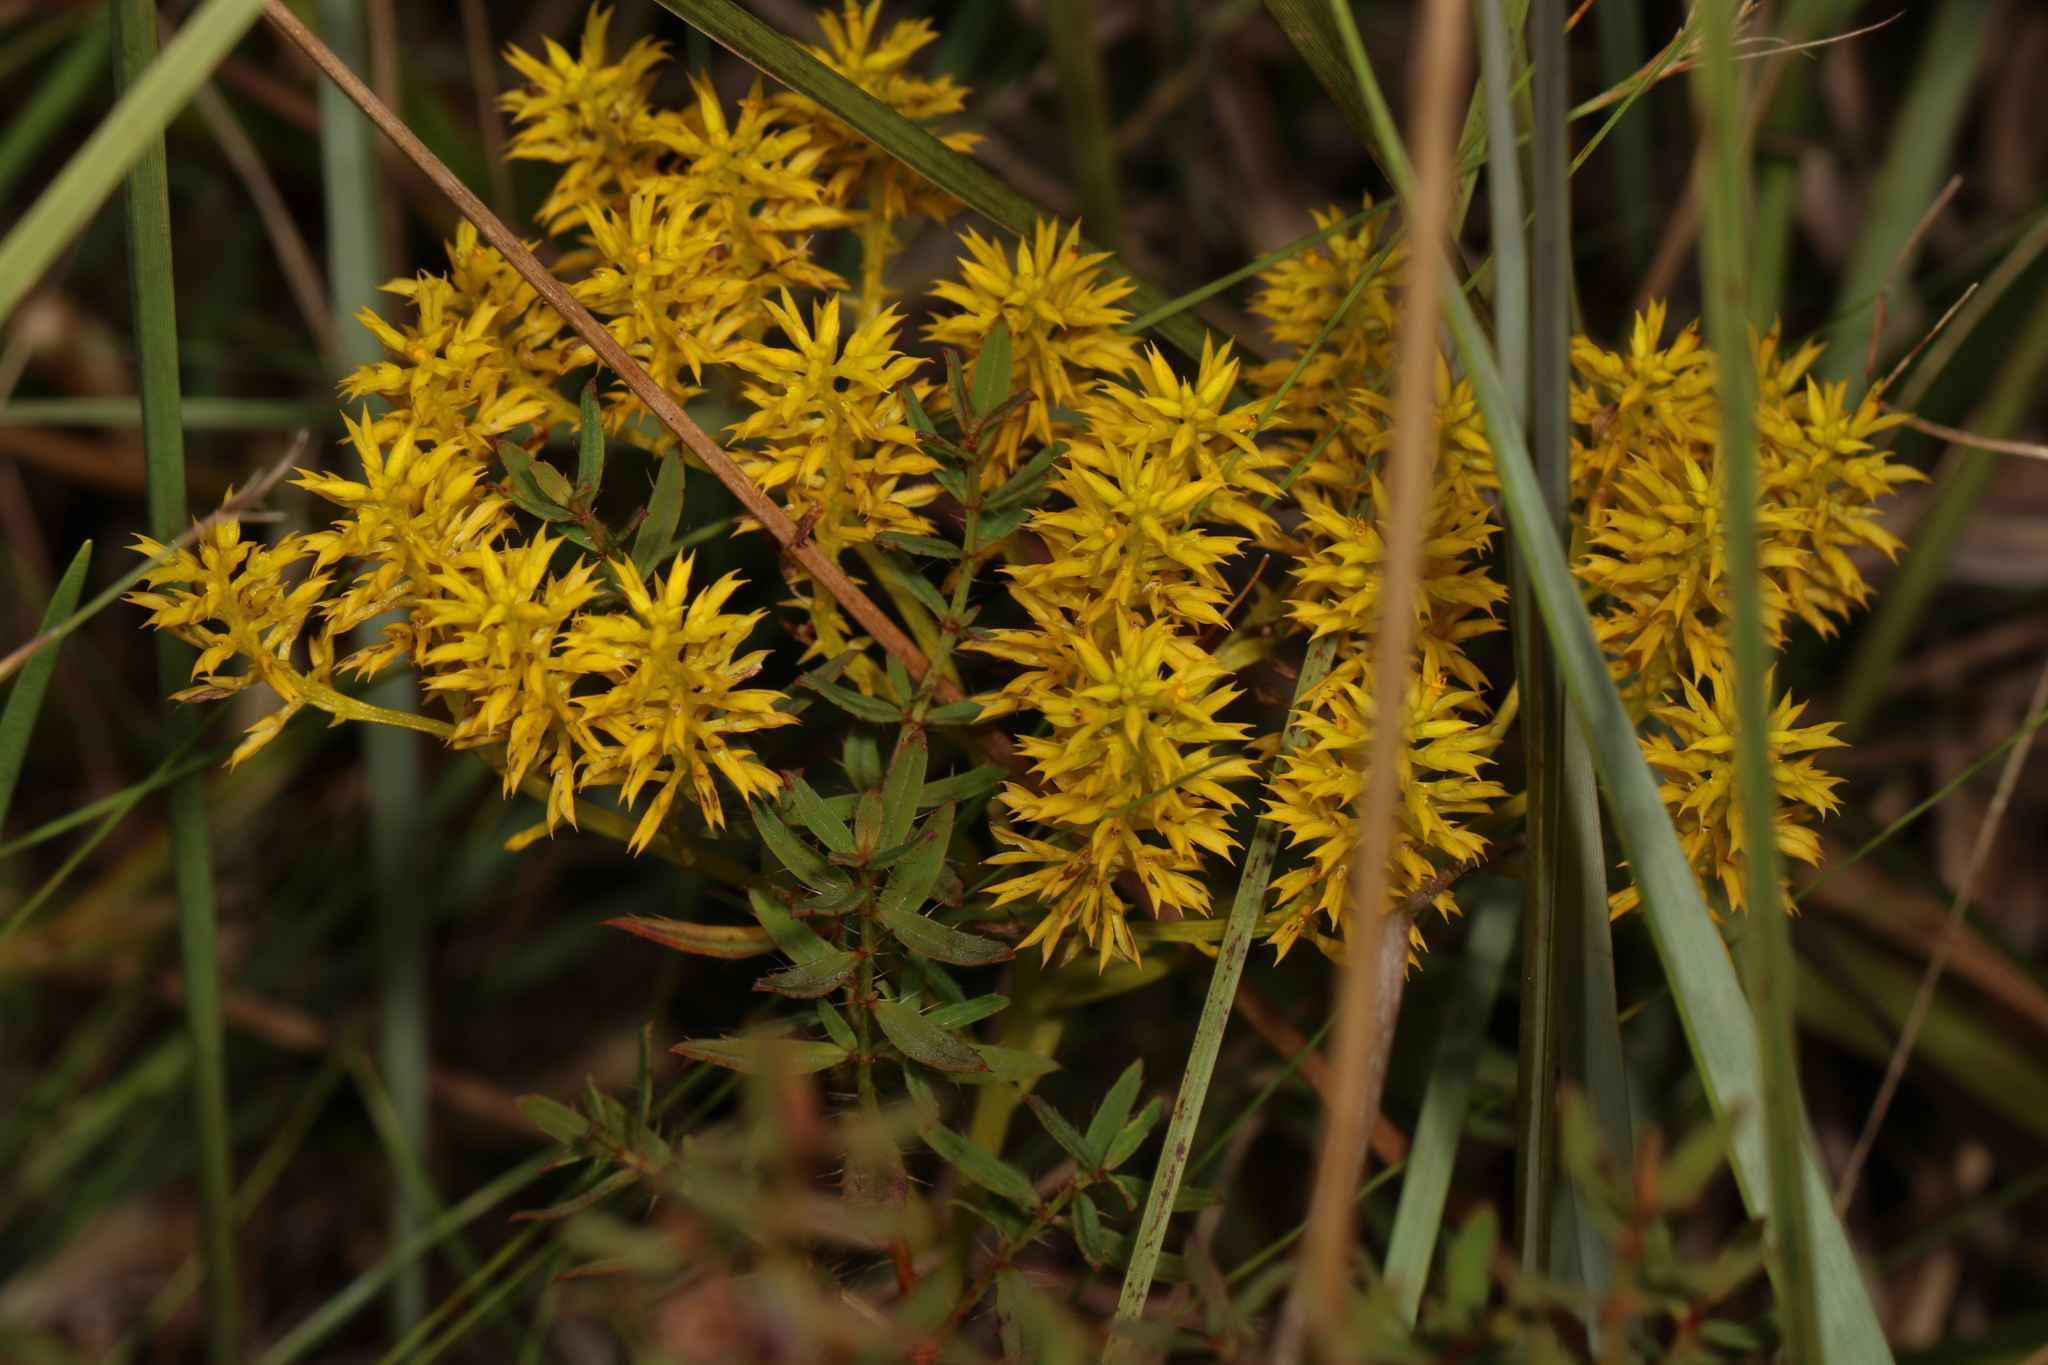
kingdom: Plantae
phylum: Tracheophyta
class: Magnoliopsida
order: Fabales
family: Polygalaceae
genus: Polygala
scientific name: Polygala ramosa
